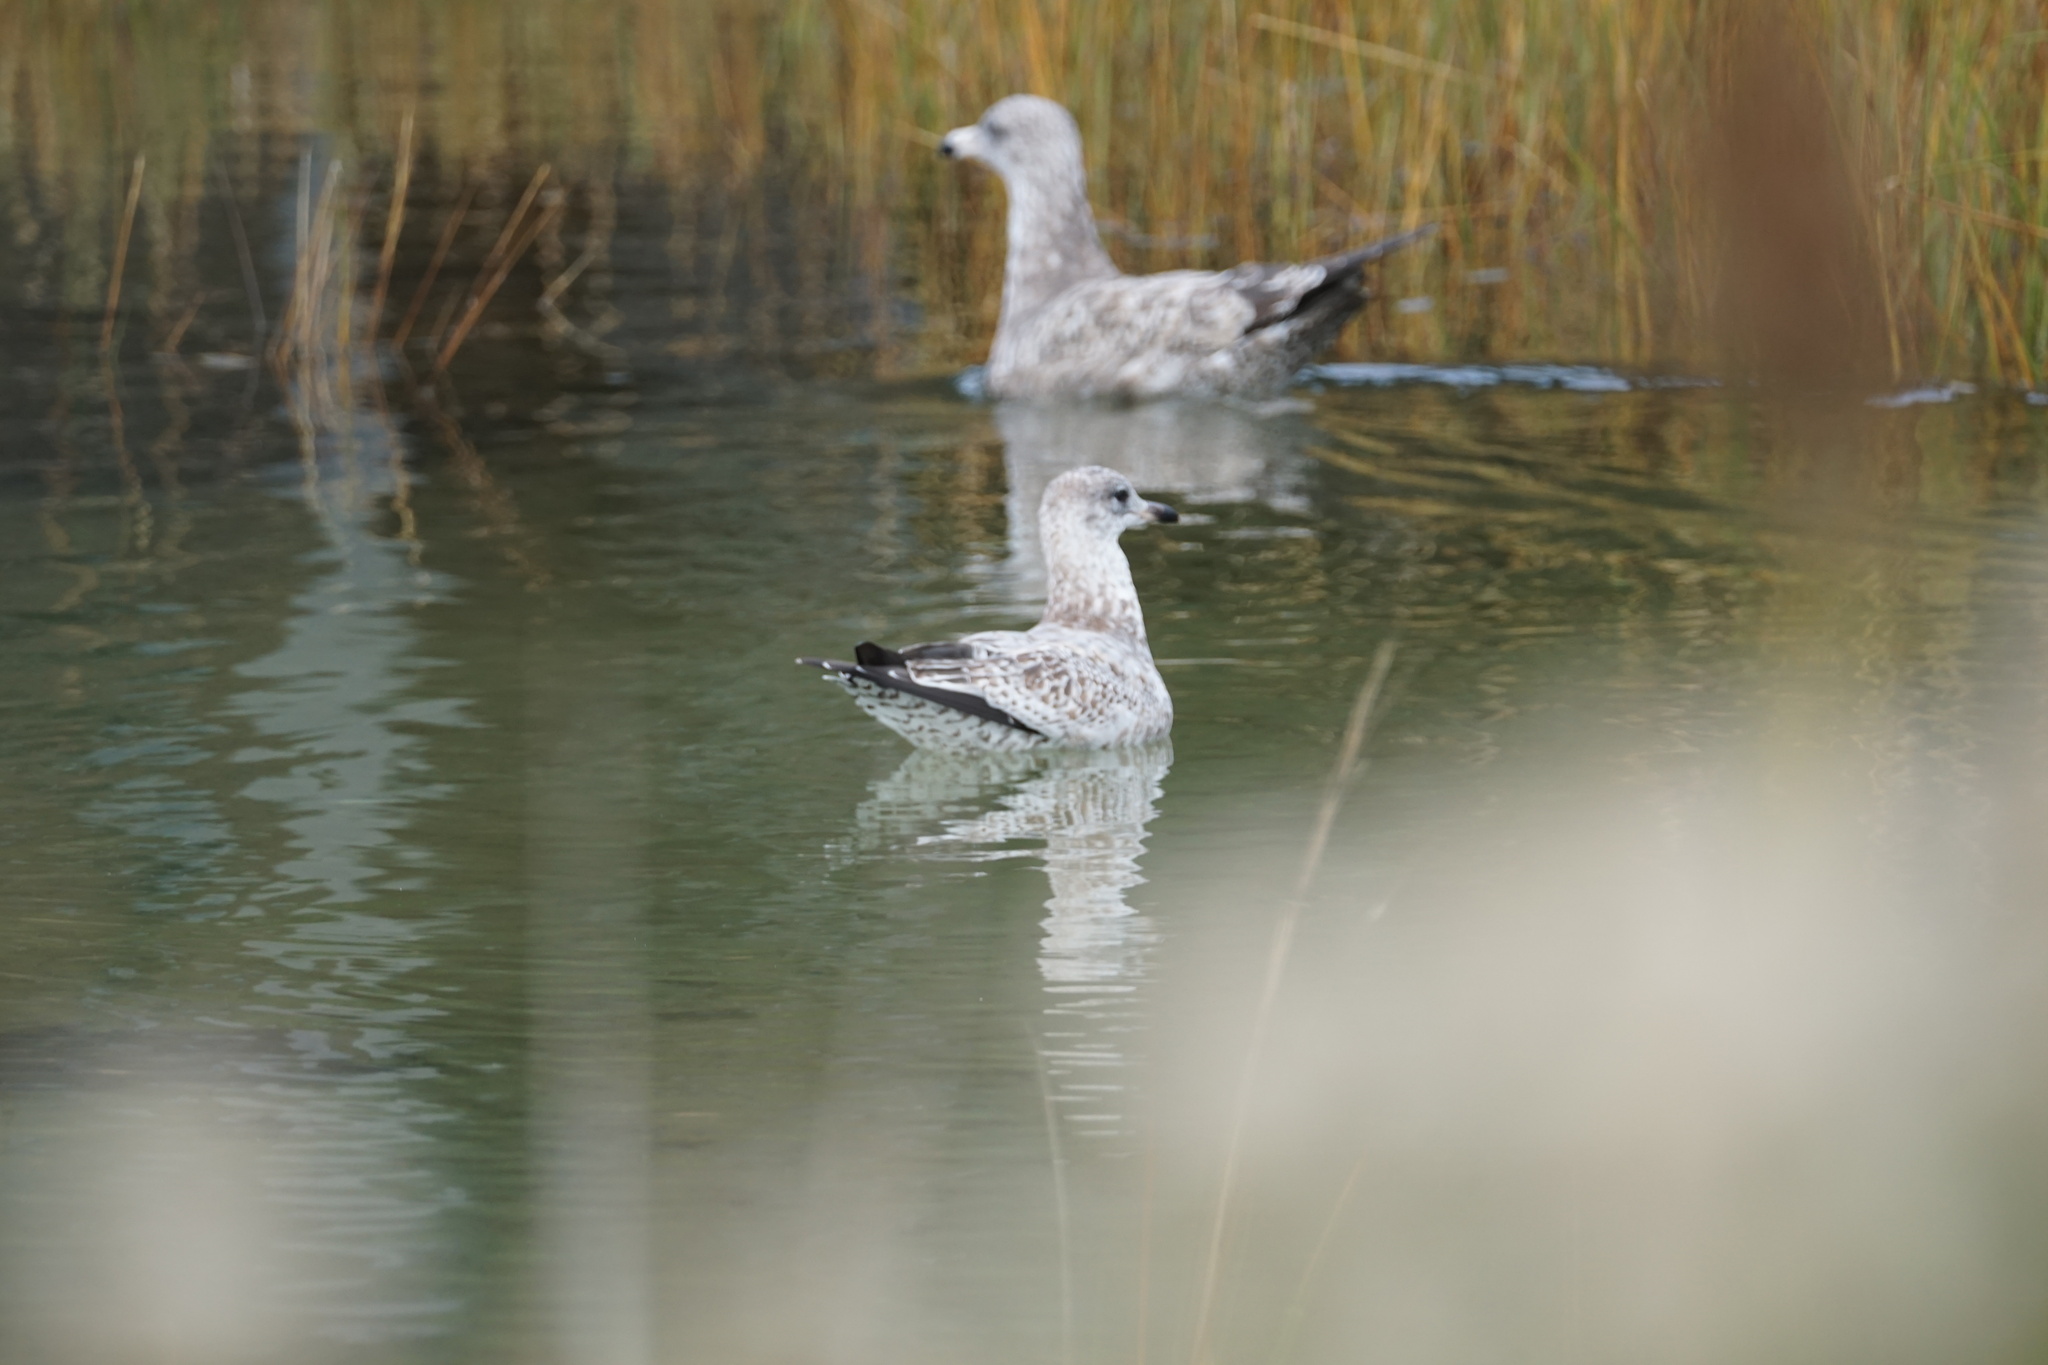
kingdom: Animalia
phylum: Chordata
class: Aves
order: Charadriiformes
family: Laridae
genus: Larus
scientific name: Larus delawarensis
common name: Ring-billed gull
